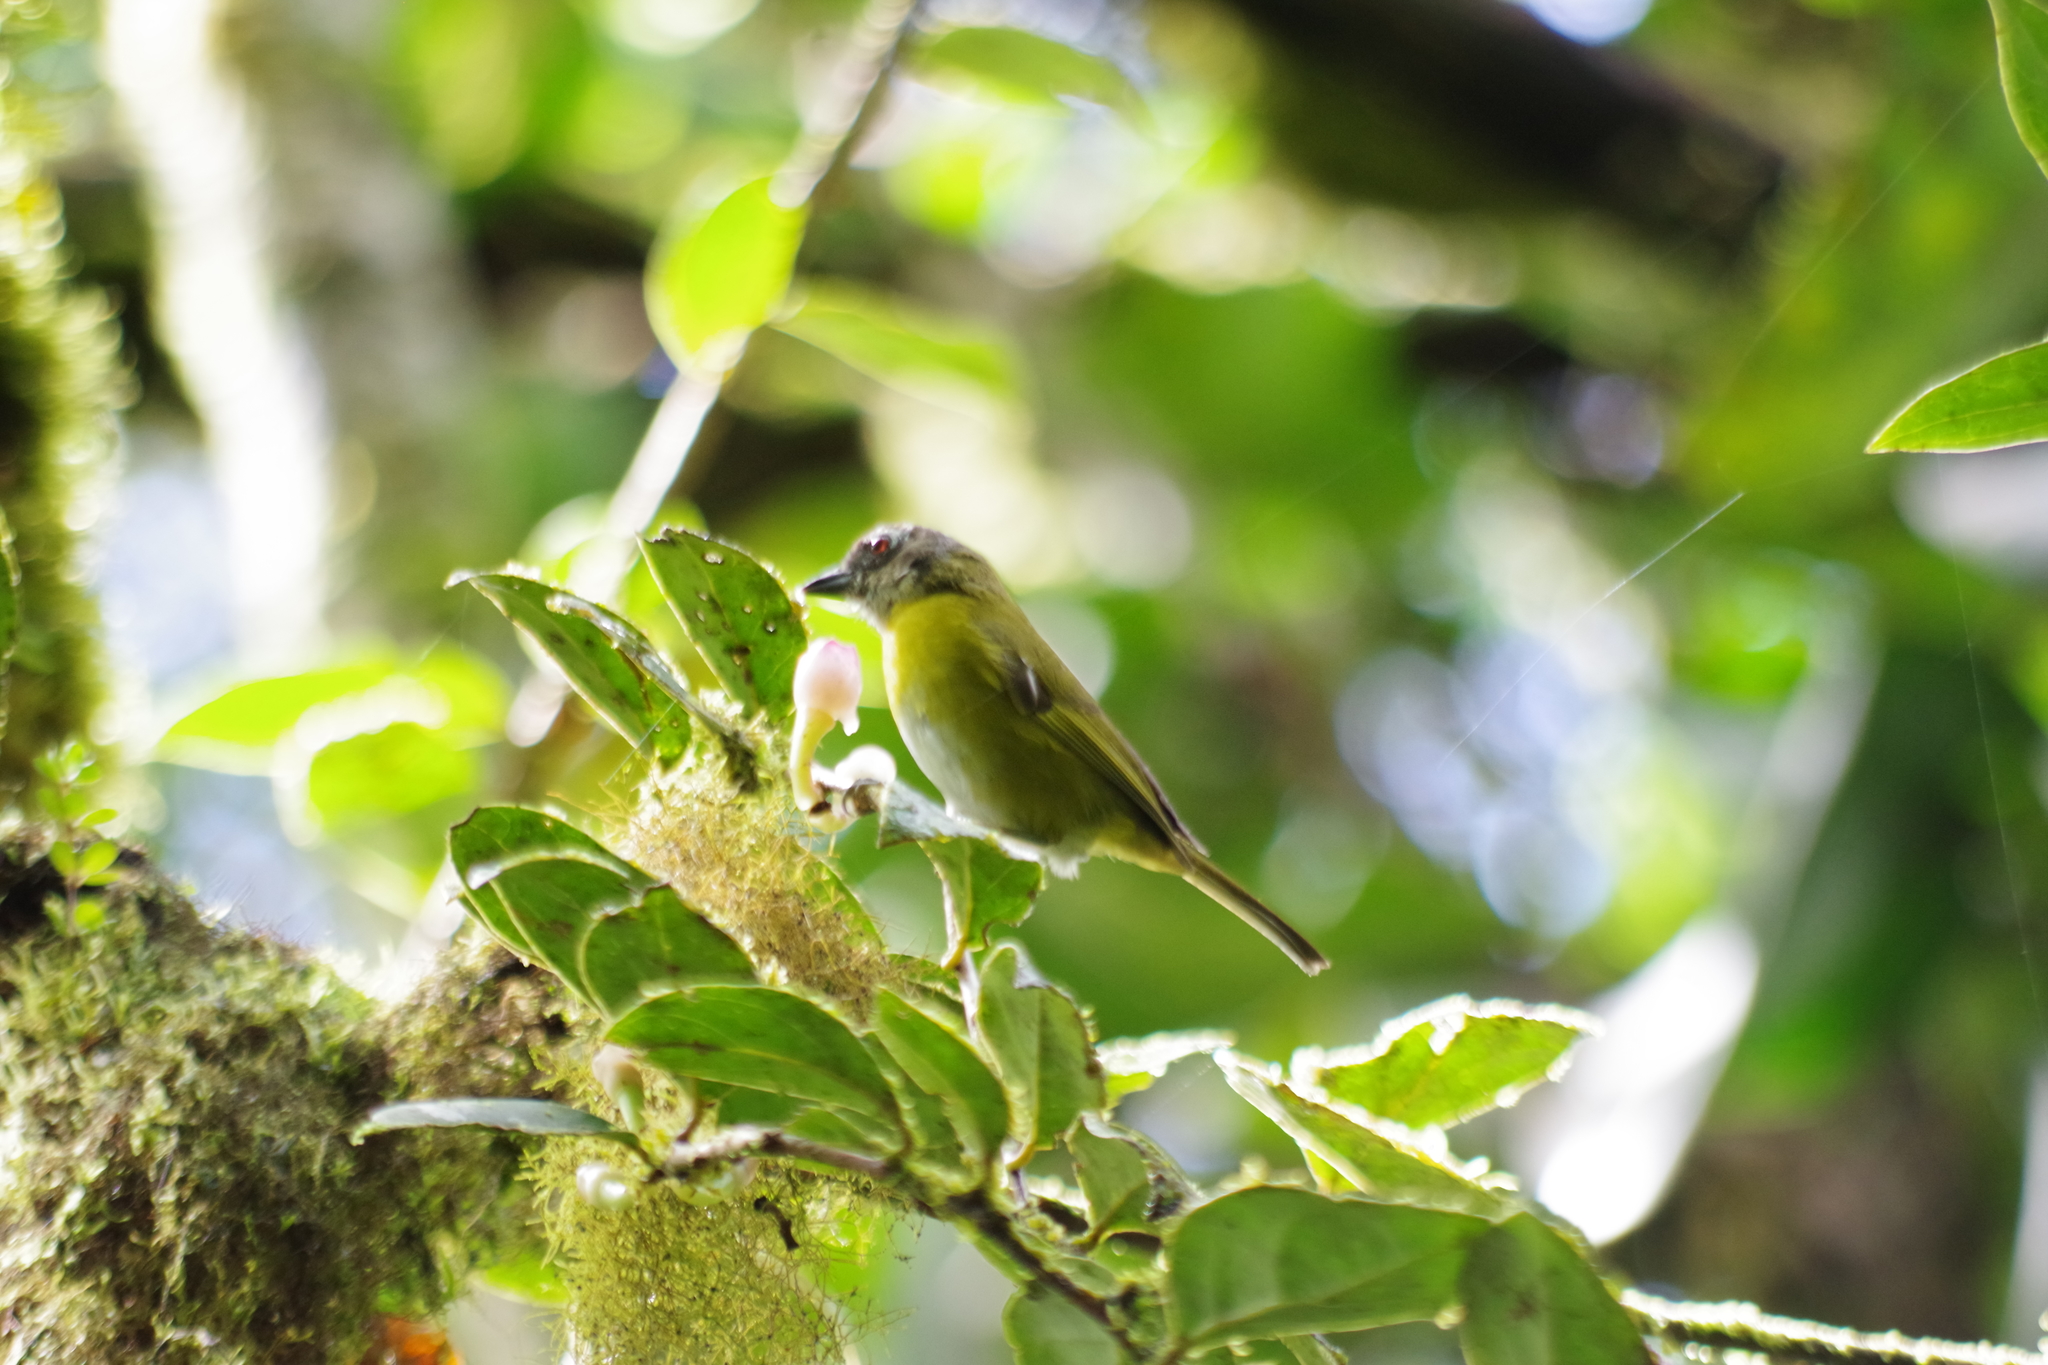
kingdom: Animalia
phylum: Chordata
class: Aves
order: Passeriformes
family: Passerellidae
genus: Chlorospingus
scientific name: Chlorospingus flavopectus
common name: Common chlorospingus
